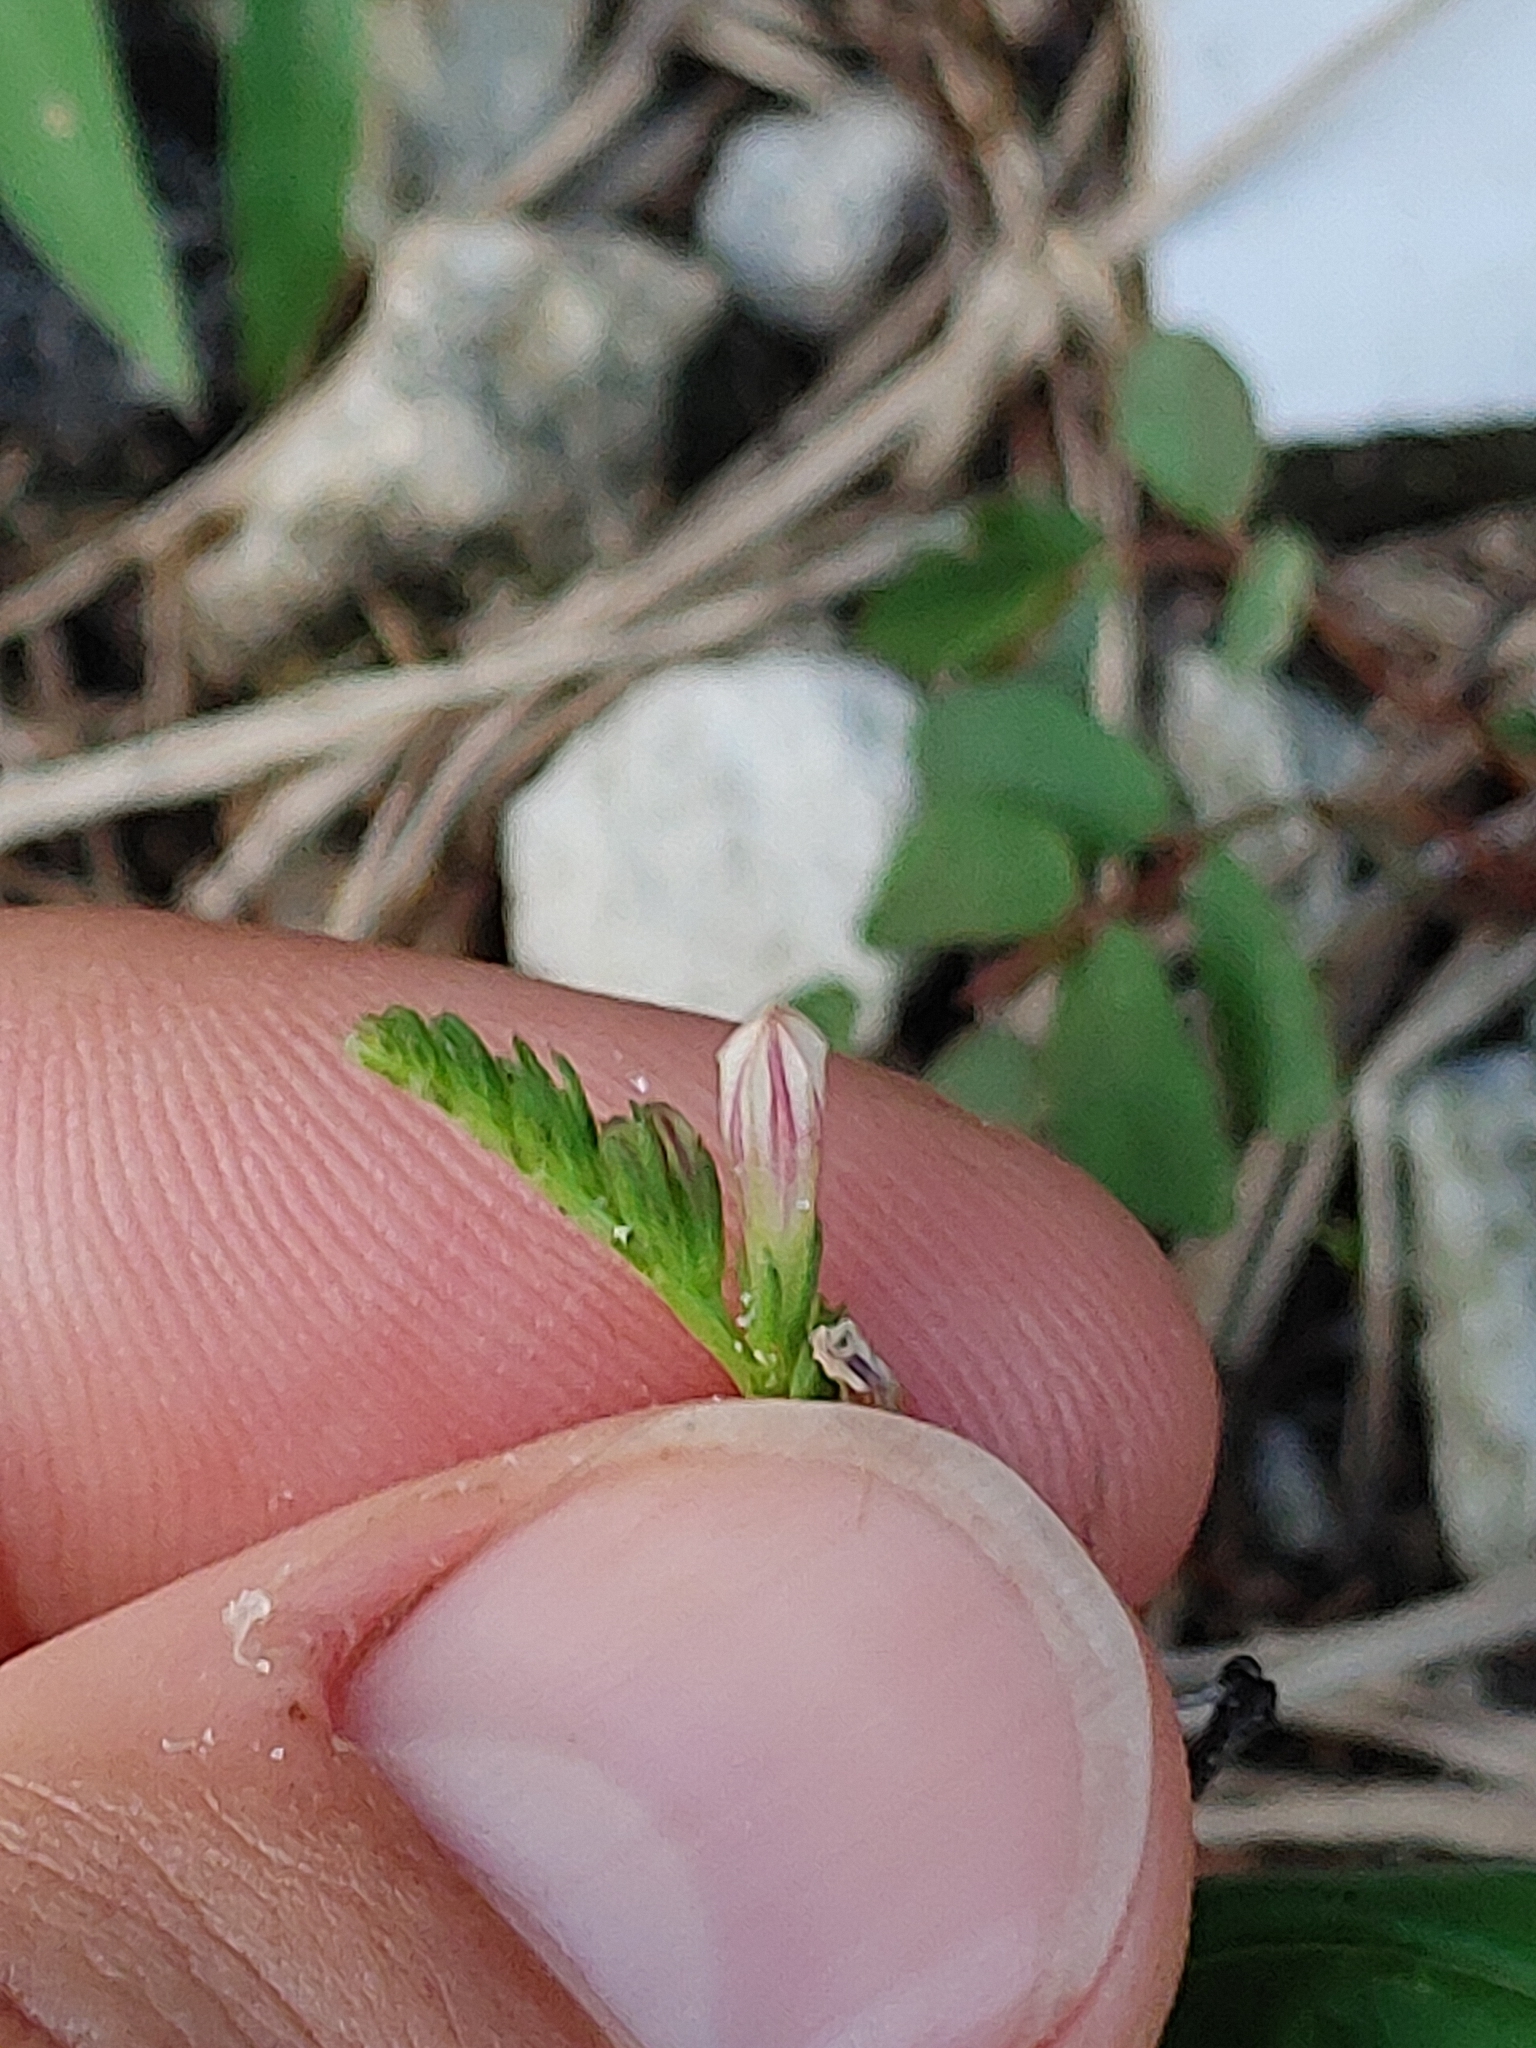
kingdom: Plantae
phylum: Tracheophyta
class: Magnoliopsida
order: Gentianales
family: Loganiaceae
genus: Spigelia
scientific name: Spigelia anthelmia
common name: West indian-pink
